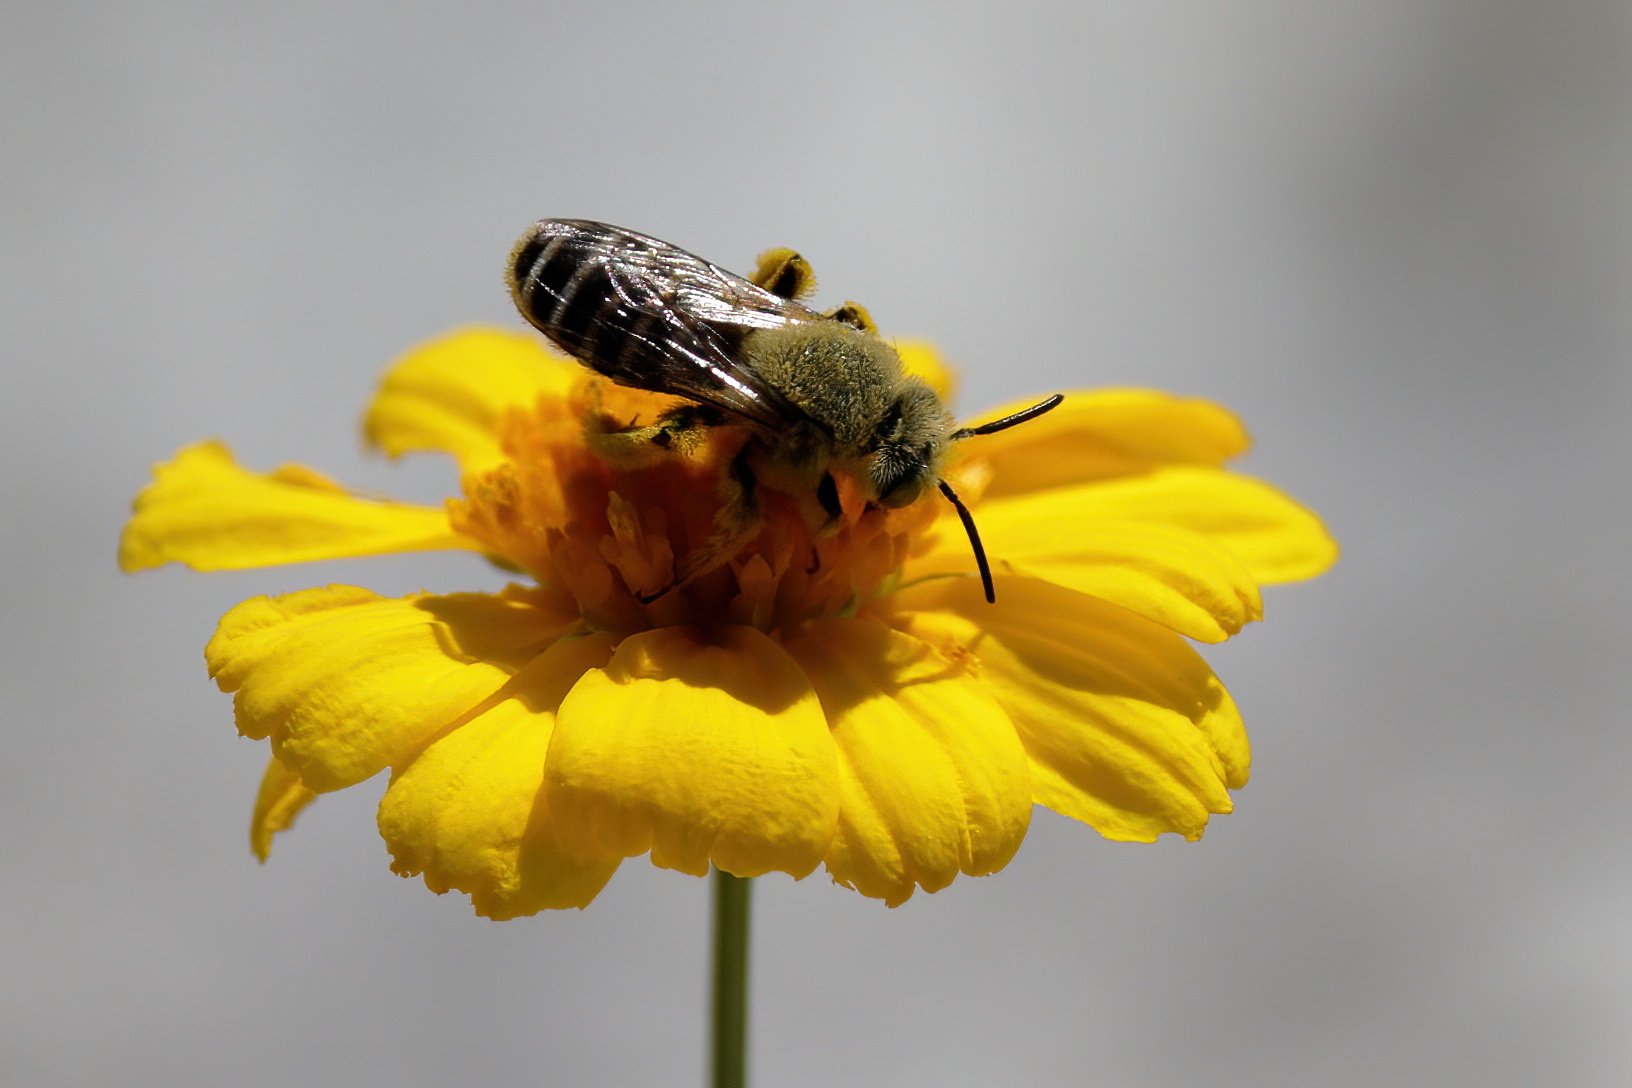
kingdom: Animalia
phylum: Arthropoda
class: Insecta
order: Hymenoptera
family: Melittidae
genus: Hesperapis
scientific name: Hesperapis oraria
